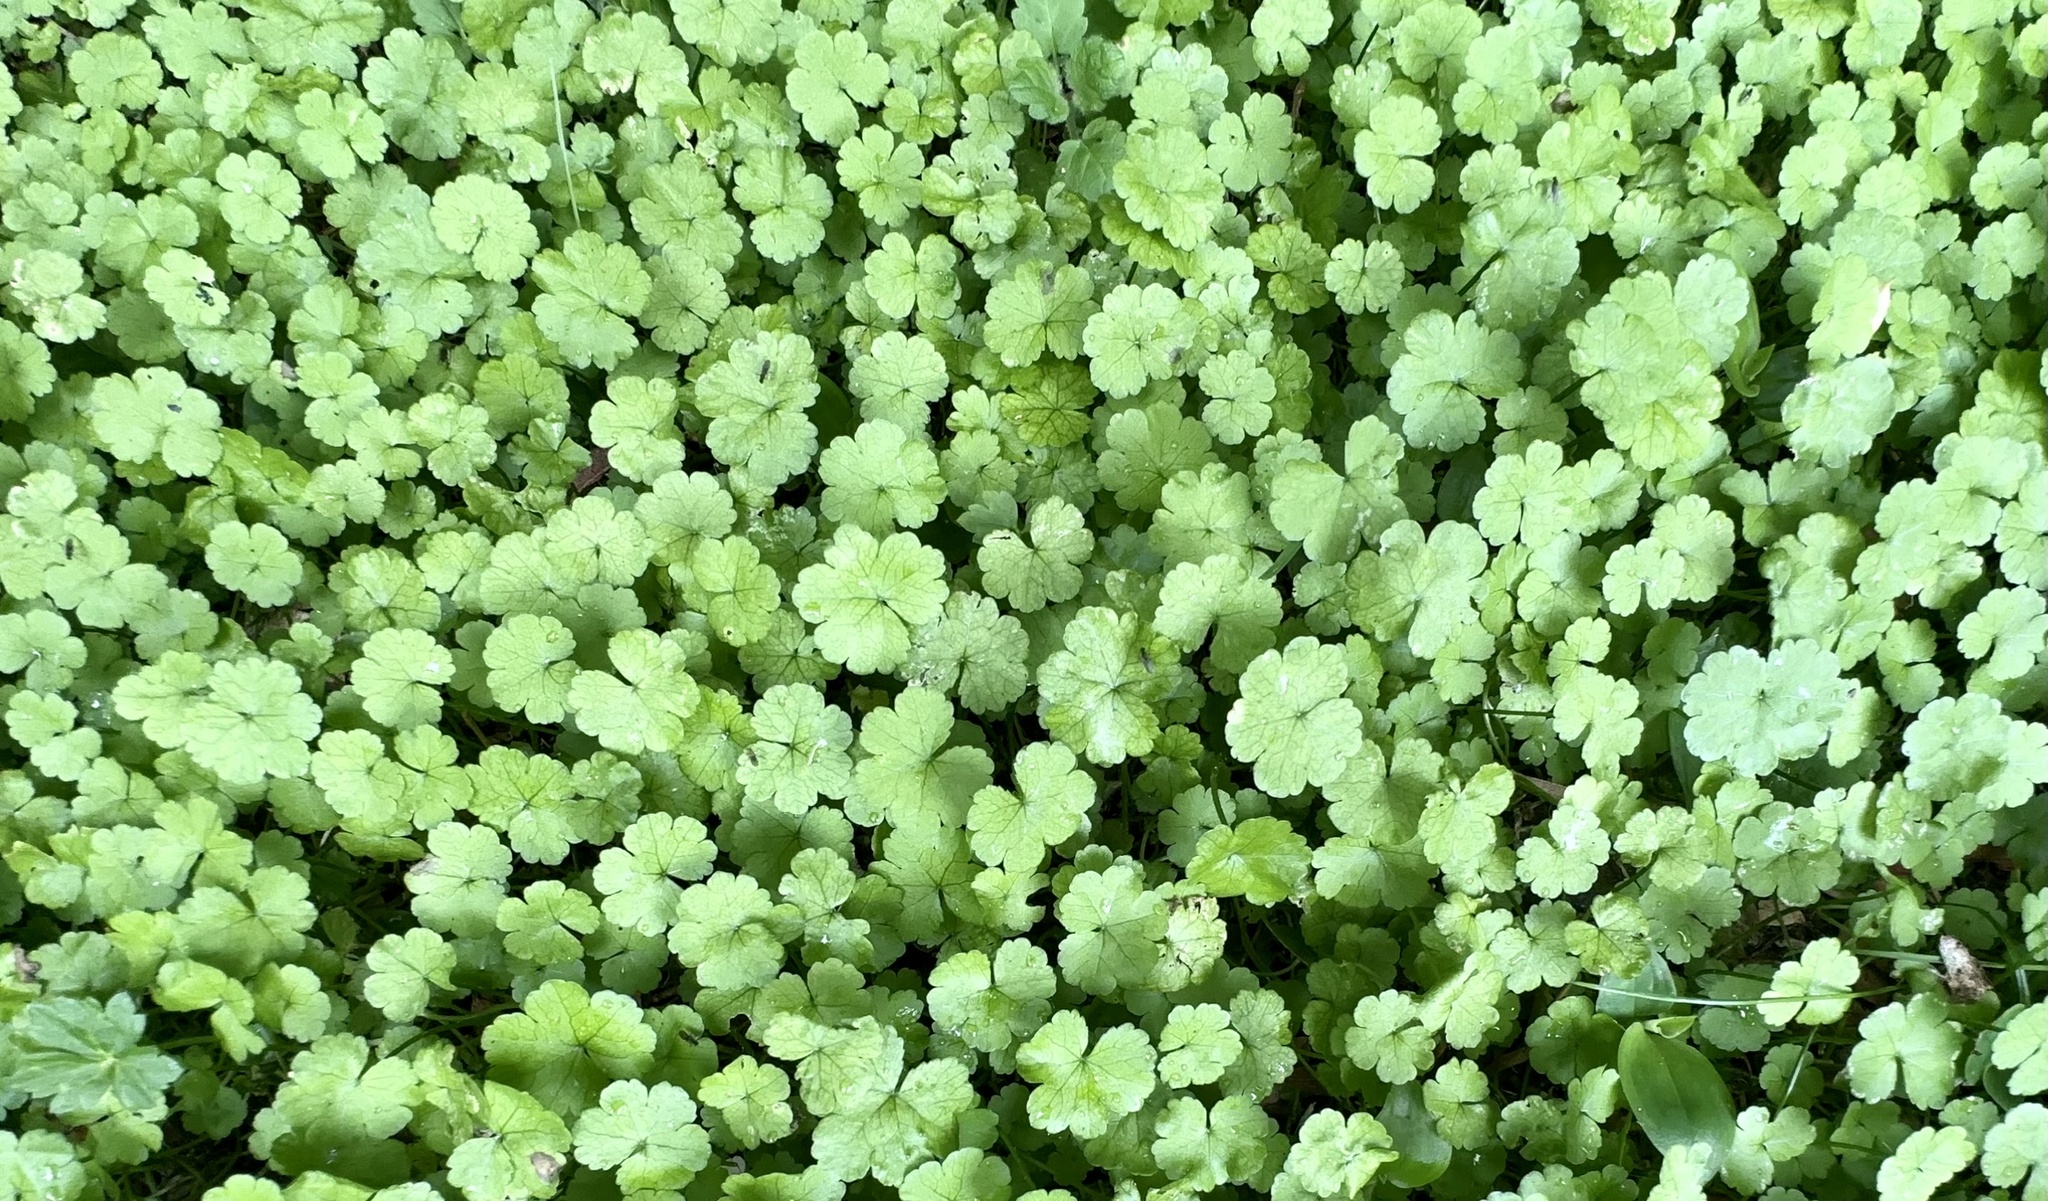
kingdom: Plantae
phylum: Tracheophyta
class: Magnoliopsida
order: Apiales
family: Araliaceae
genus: Hydrocotyle
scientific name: Hydrocotyle heteromeria
